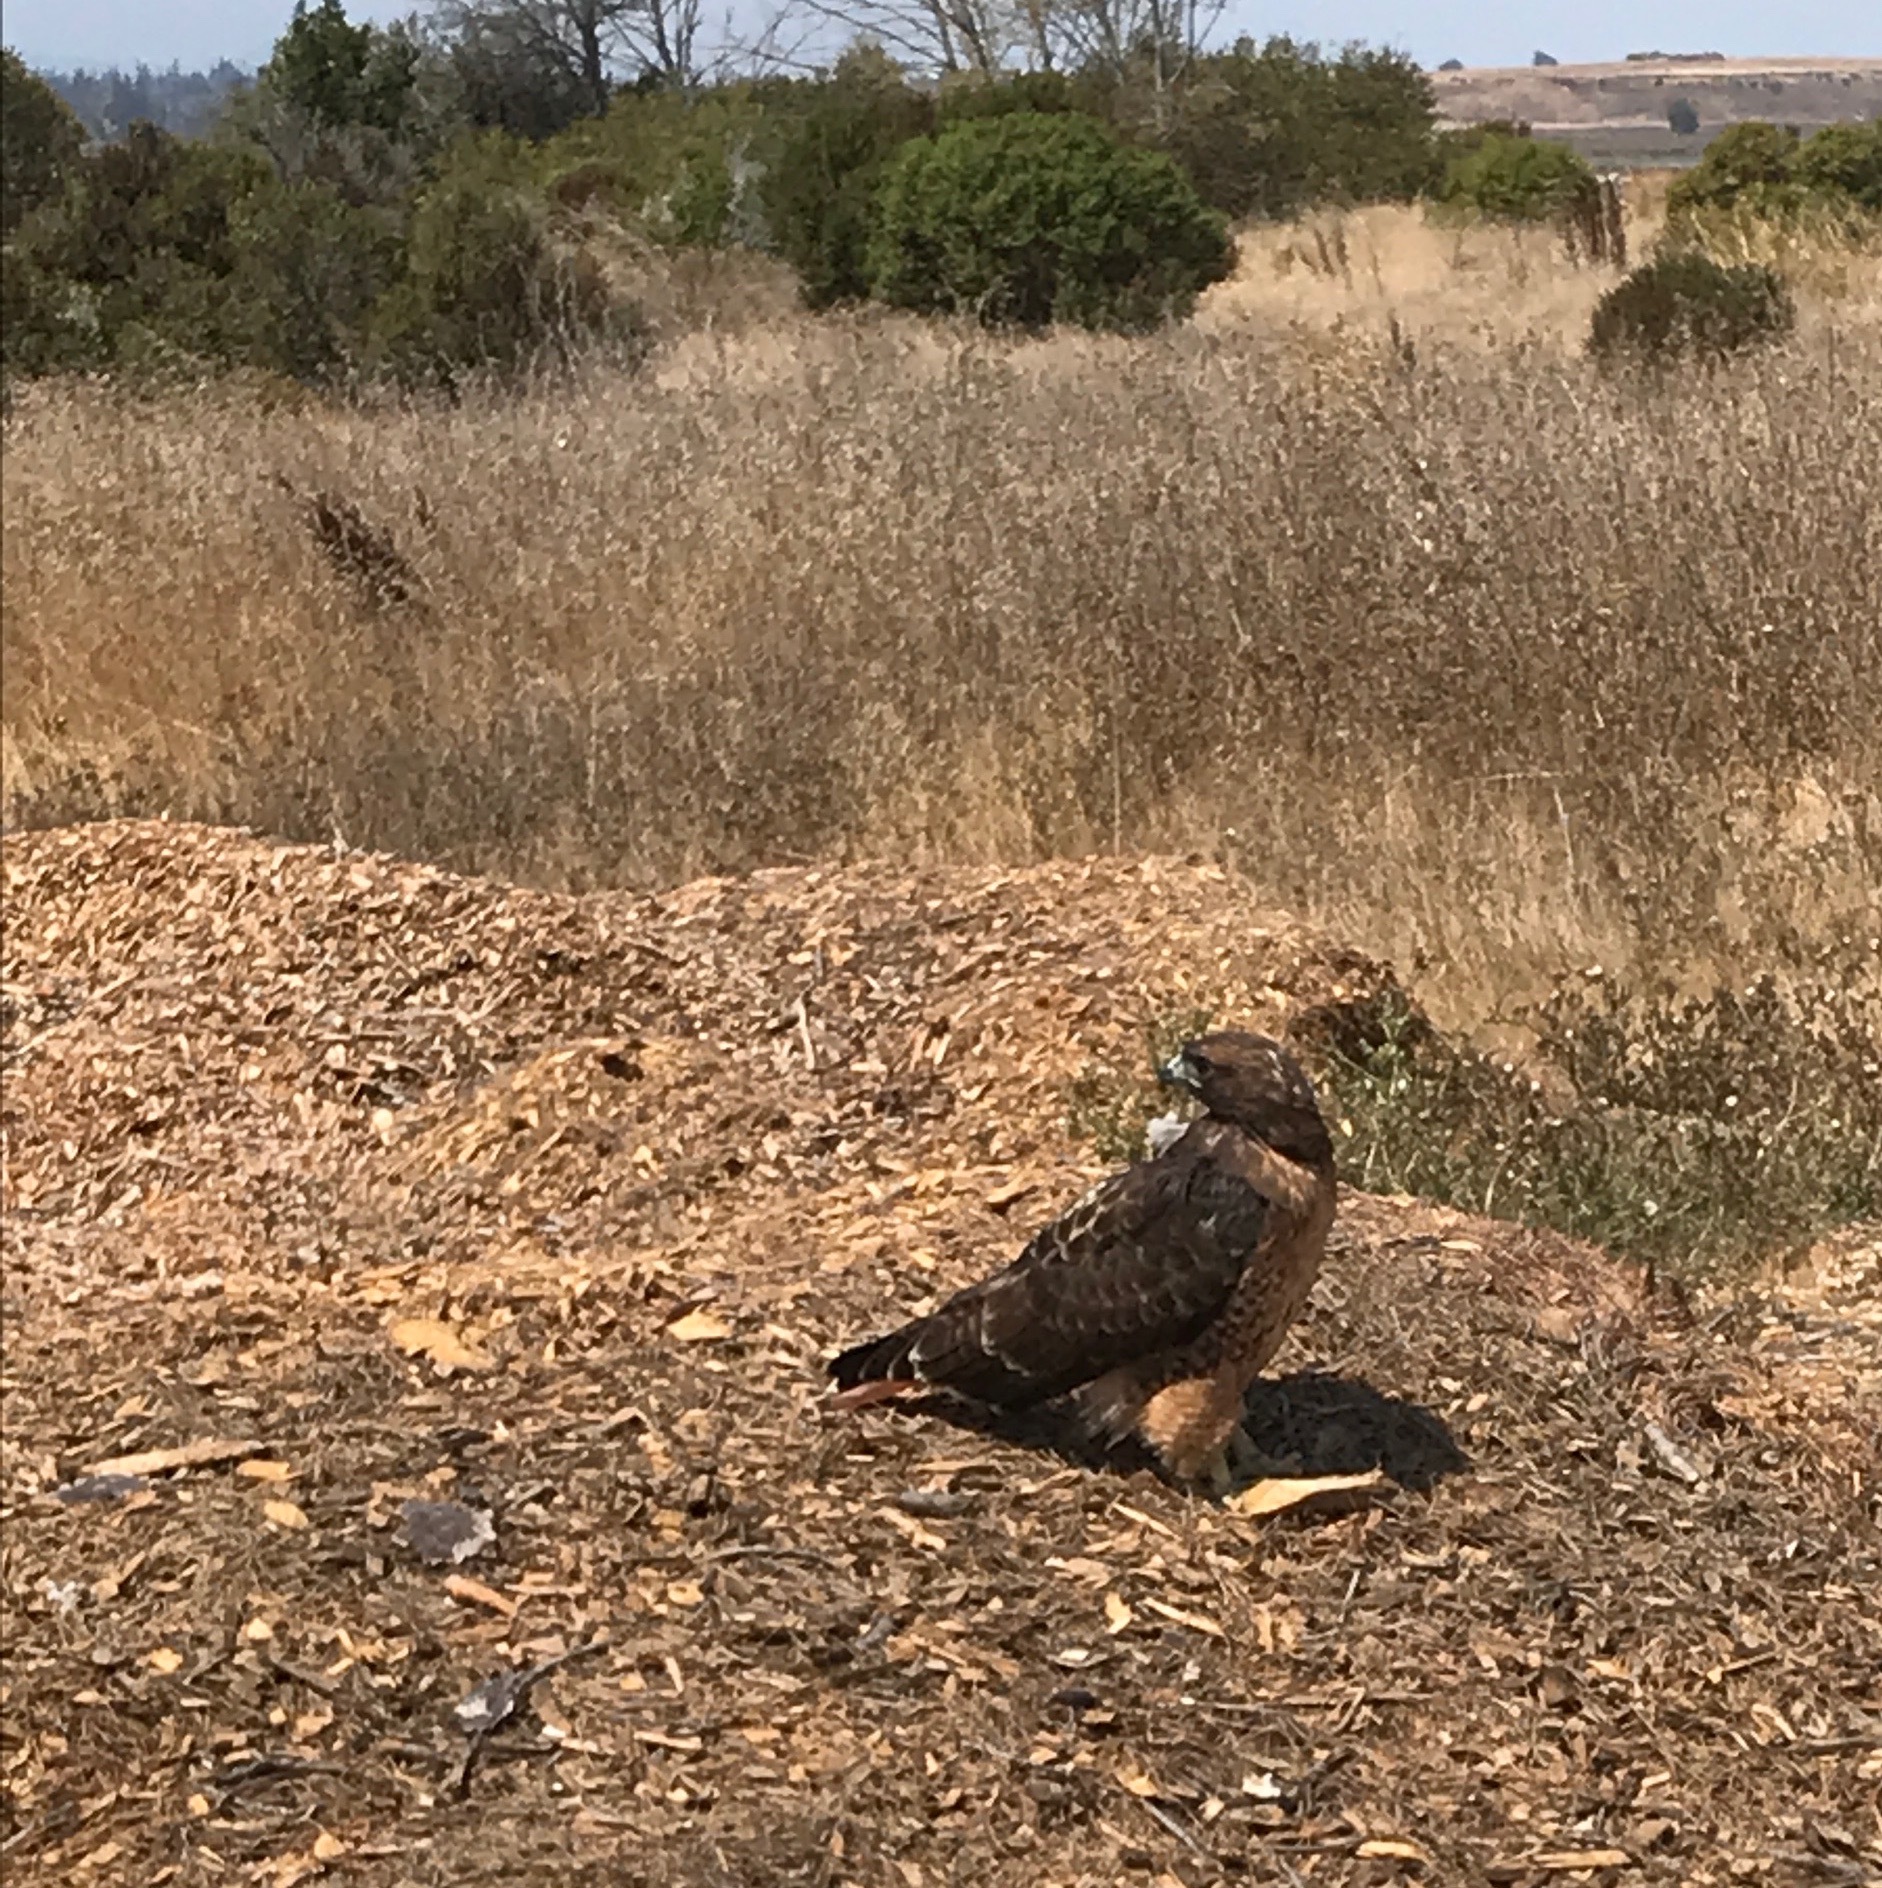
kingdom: Animalia
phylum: Chordata
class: Aves
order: Accipitriformes
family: Accipitridae
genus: Buteo
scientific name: Buteo jamaicensis
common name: Red-tailed hawk
